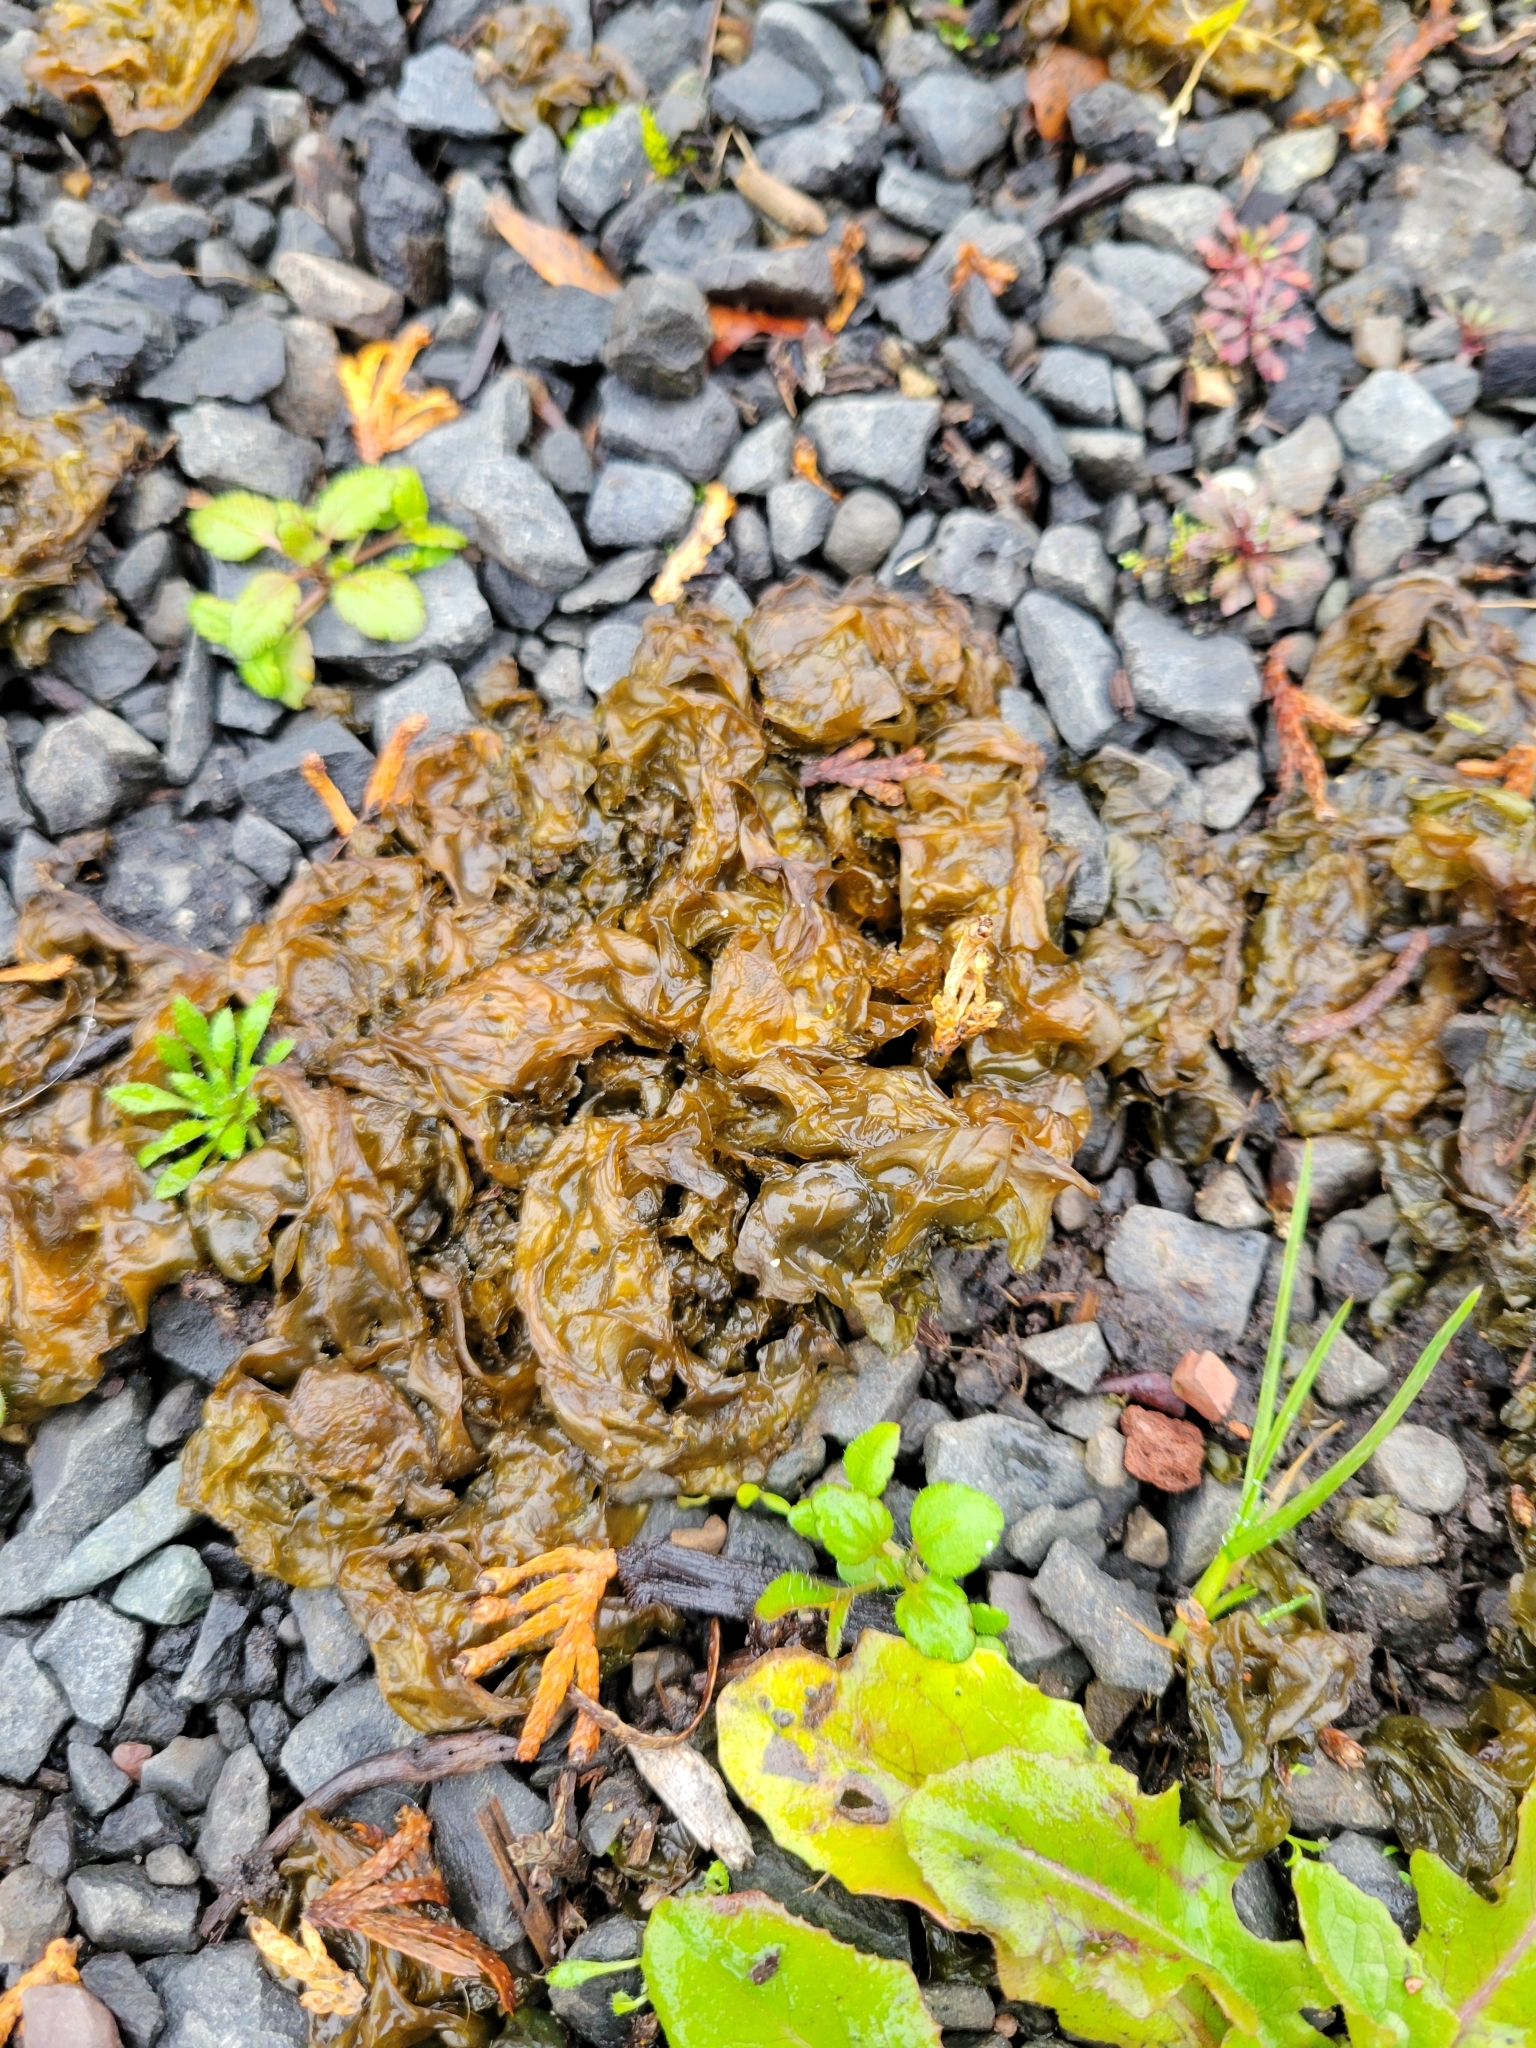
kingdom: Bacteria
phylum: Cyanobacteria
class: Cyanobacteriia
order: Cyanobacteriales
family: Nostocaceae
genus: Nostoc
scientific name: Nostoc commune
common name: Star jelly
